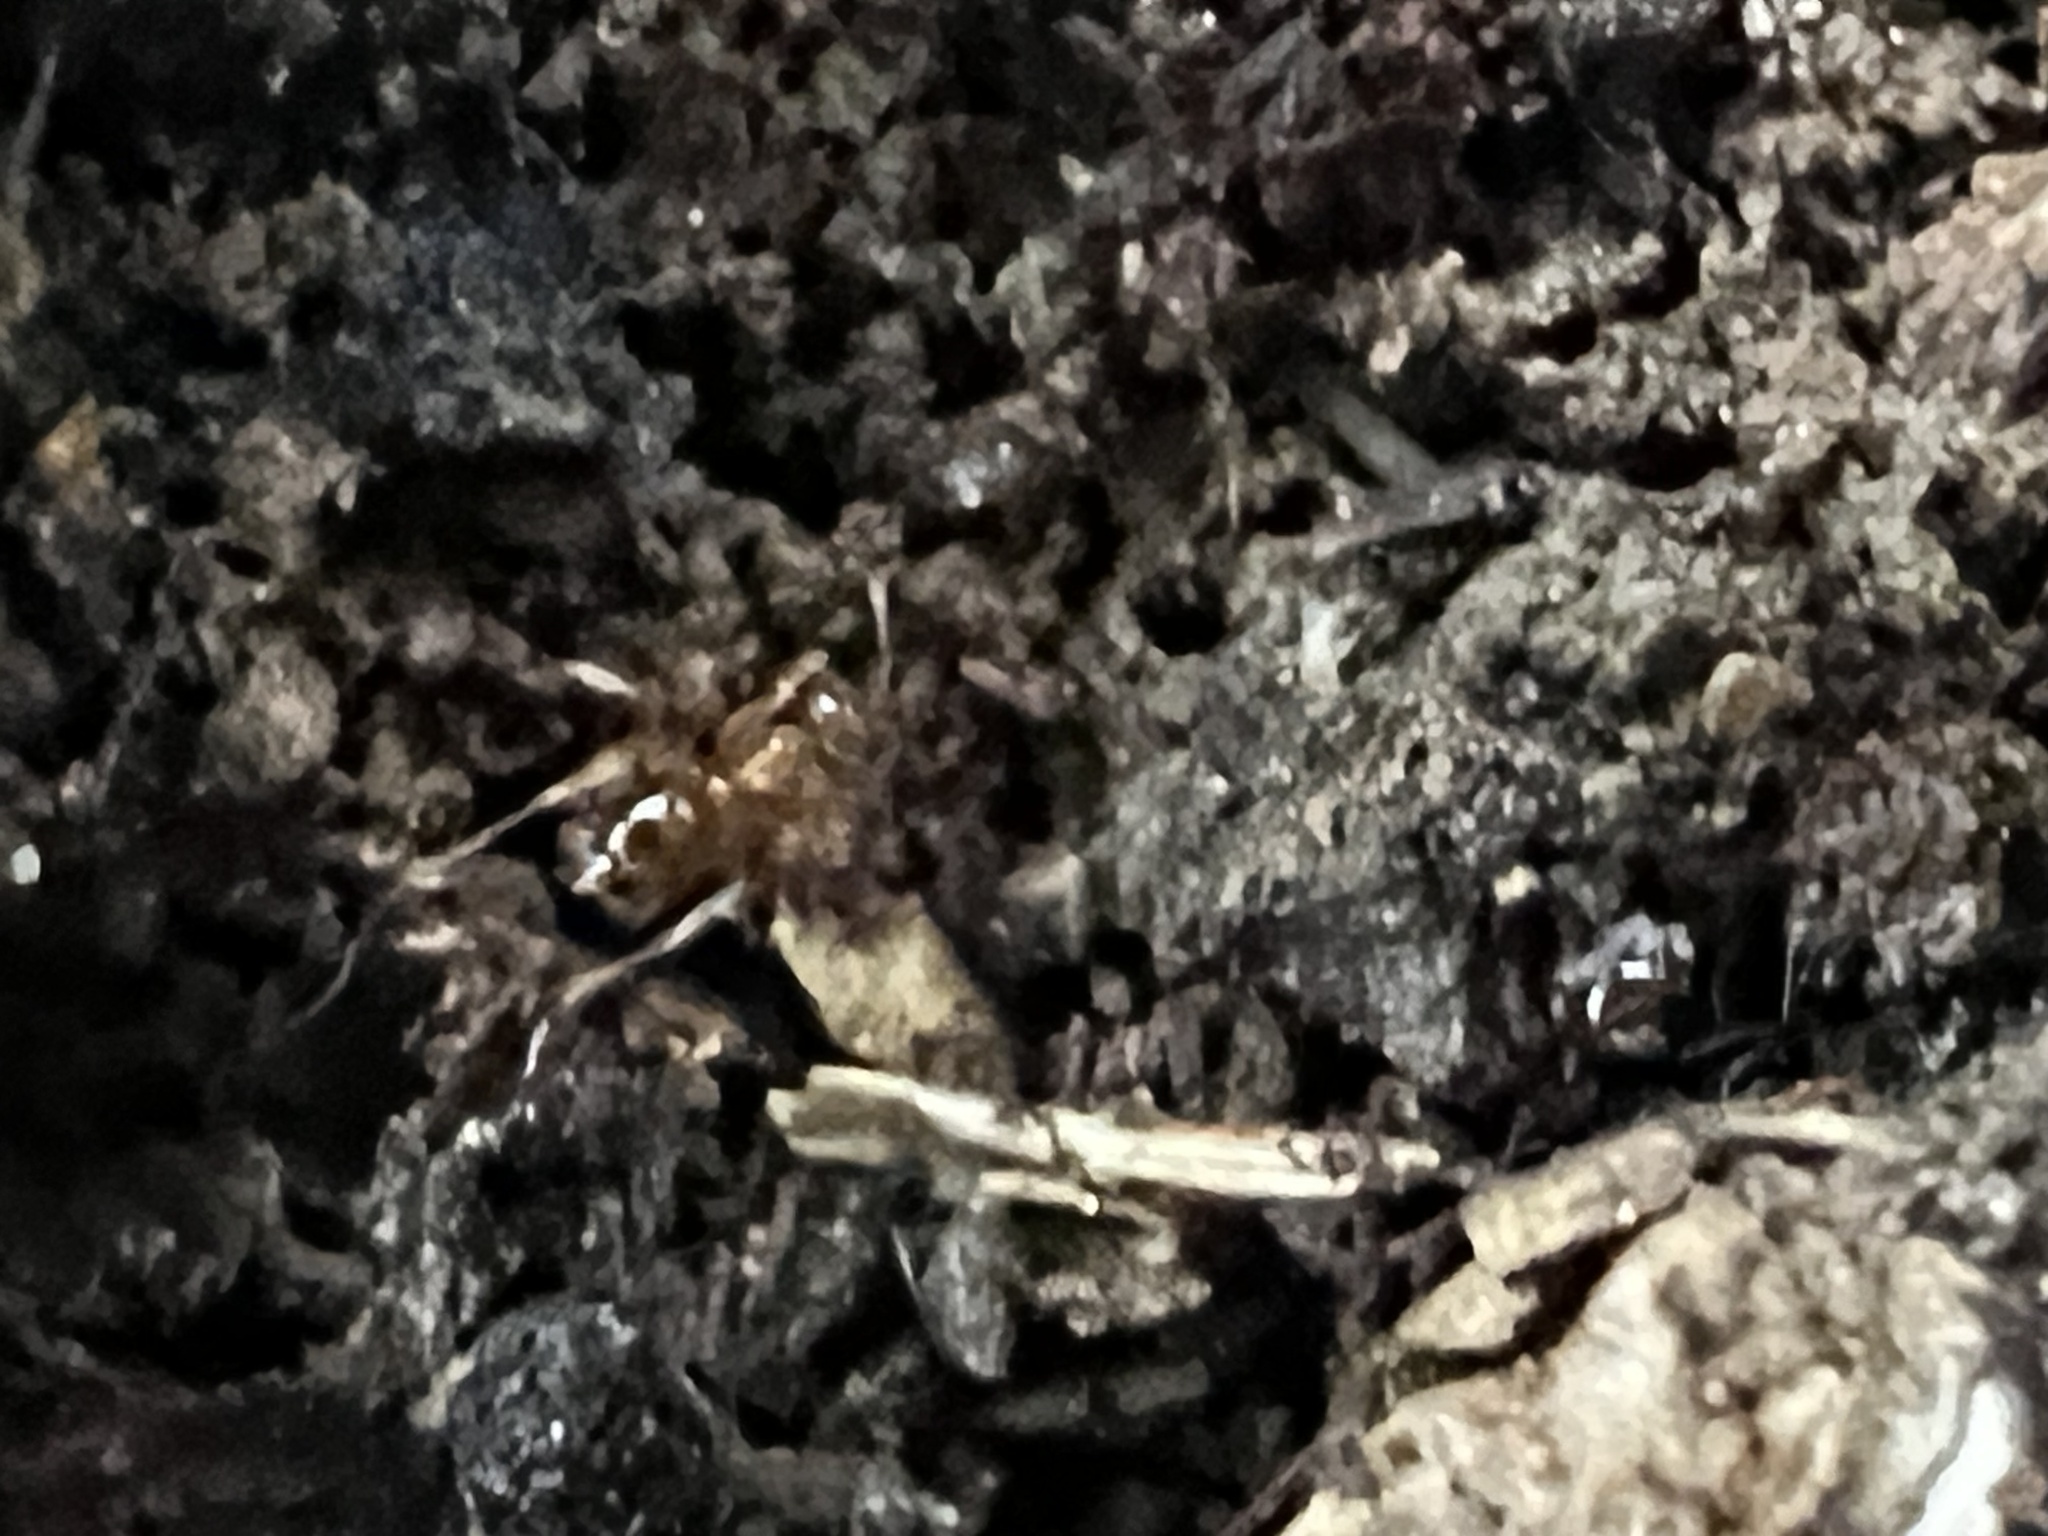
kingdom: Animalia
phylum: Arthropoda
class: Insecta
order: Hymenoptera
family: Formicidae
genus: Paratrechina
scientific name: Paratrechina flavipes
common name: Eastern asian formicine ant
